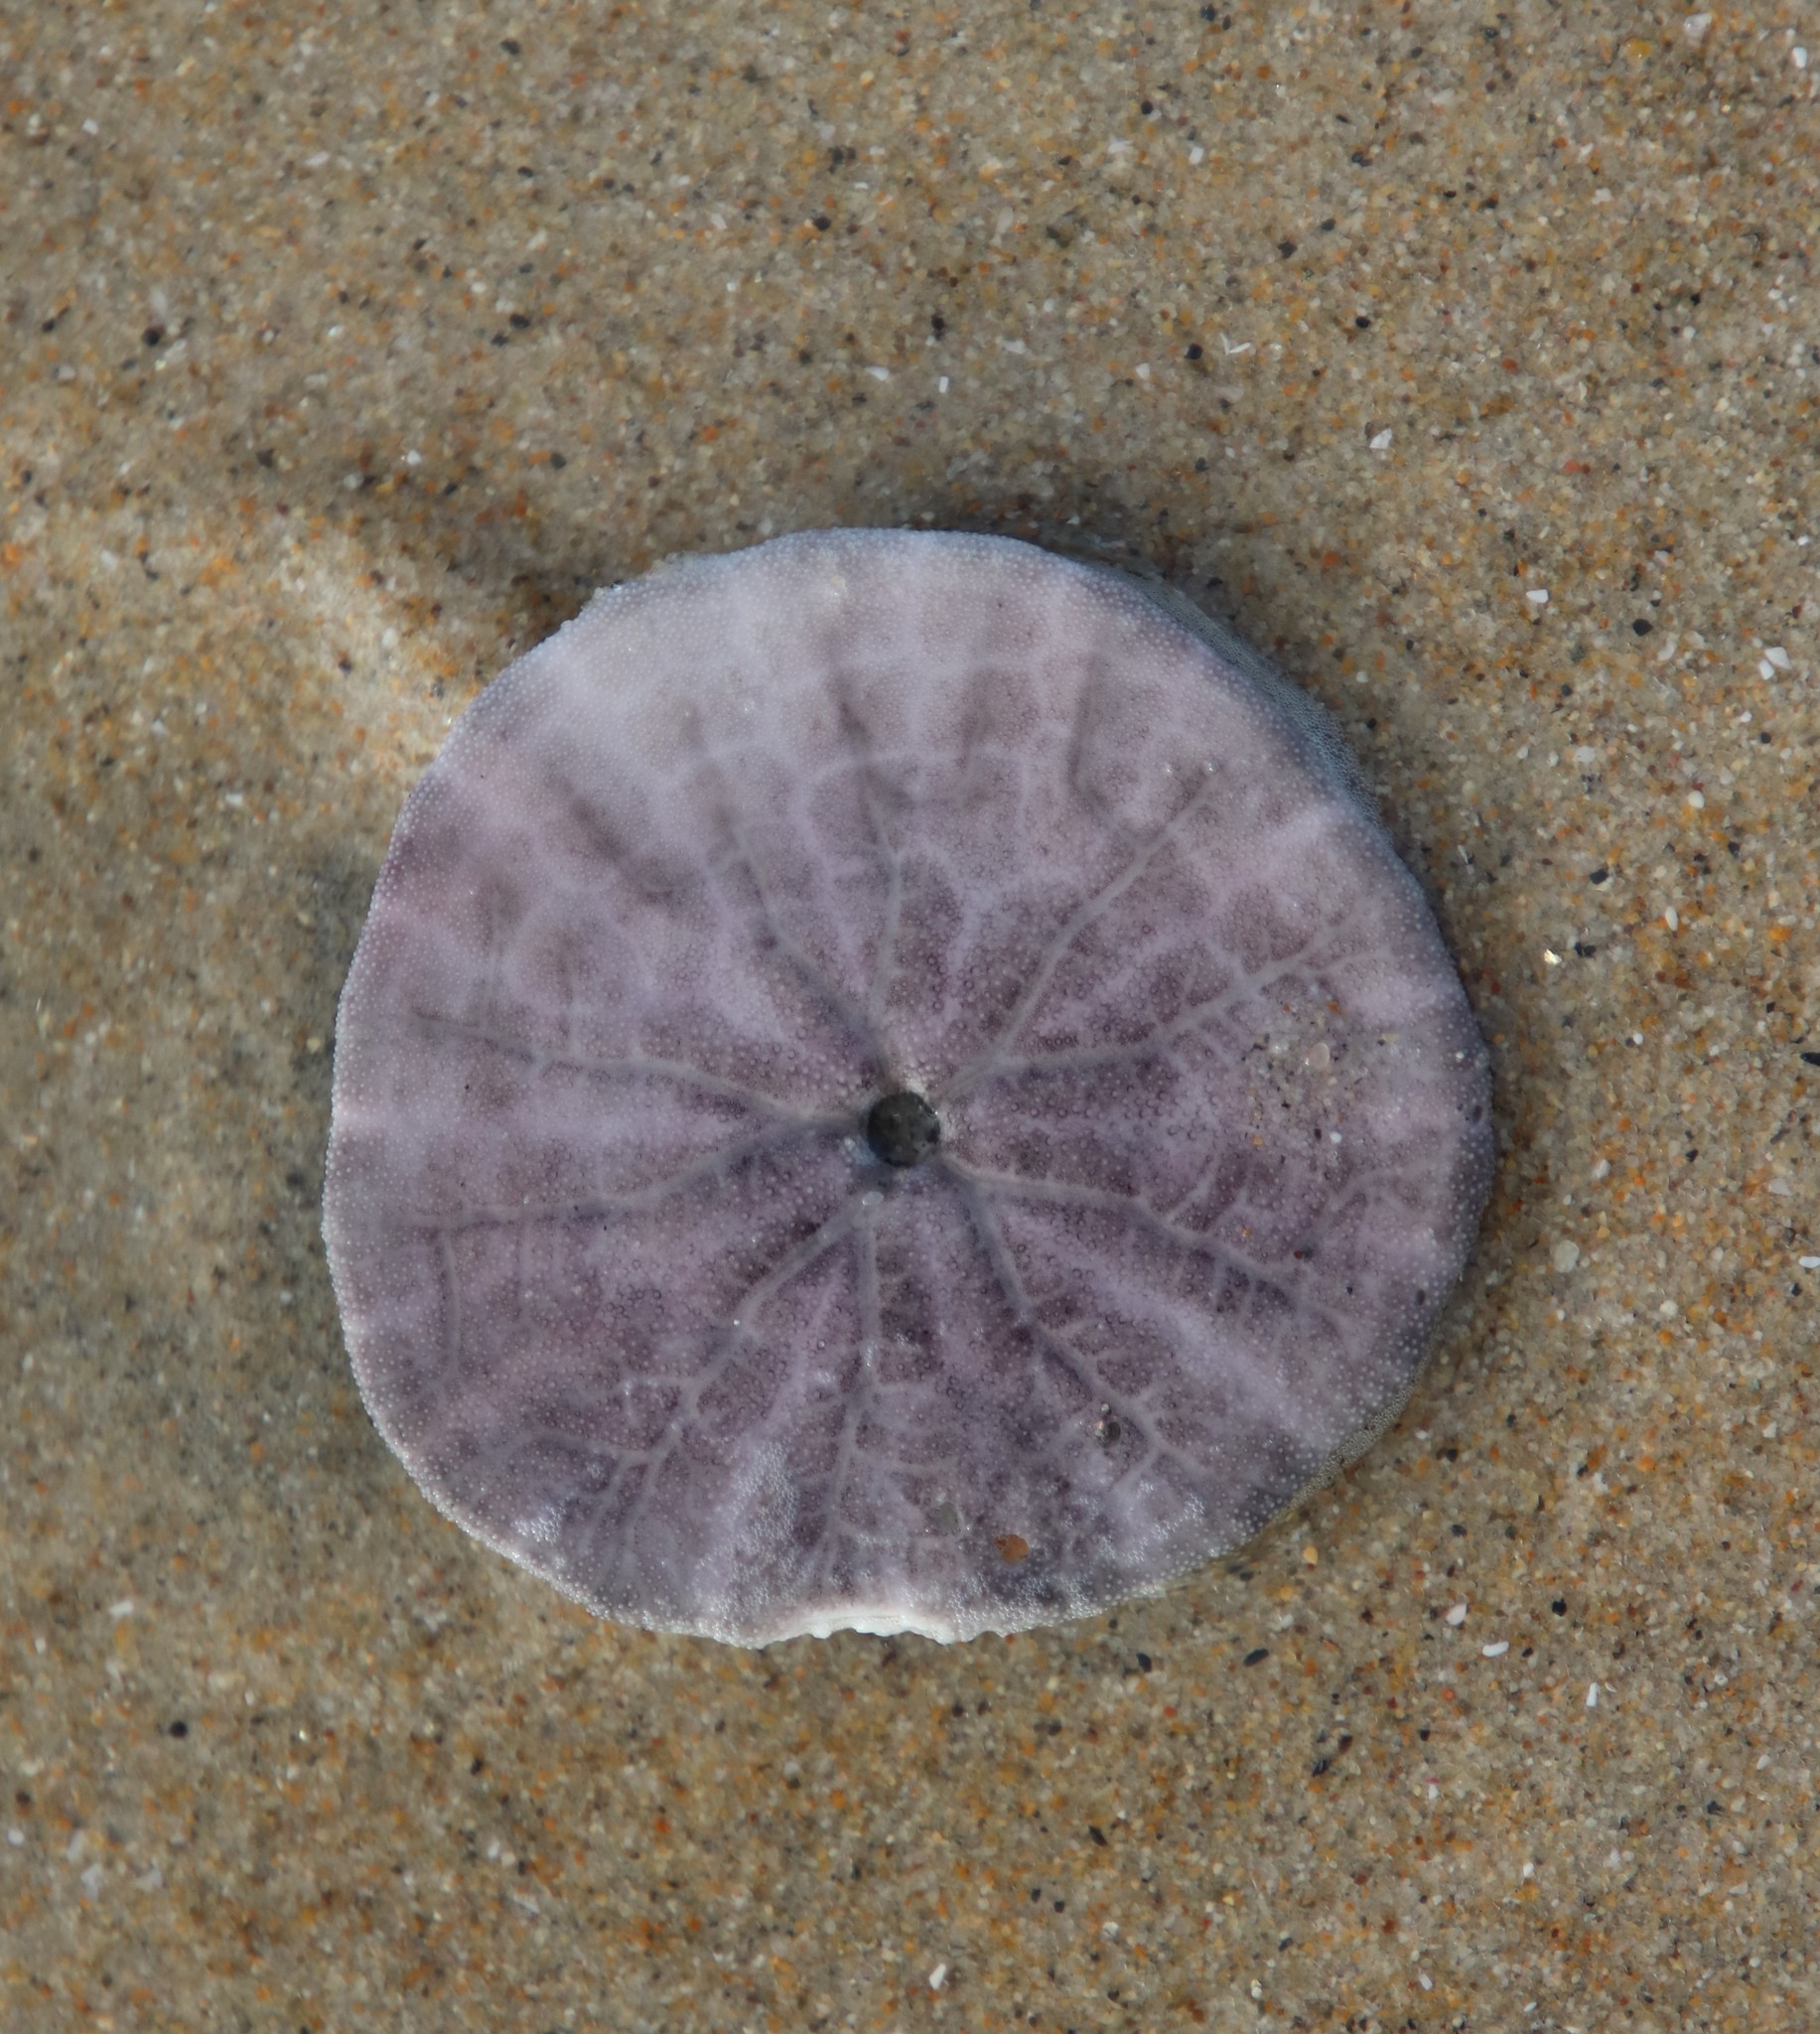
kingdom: Animalia
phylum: Echinodermata
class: Echinoidea
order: Echinolampadacea
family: Dendrasteridae
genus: Dendraster
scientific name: Dendraster excentricus
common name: Eccentric sand dollar sea urchin
